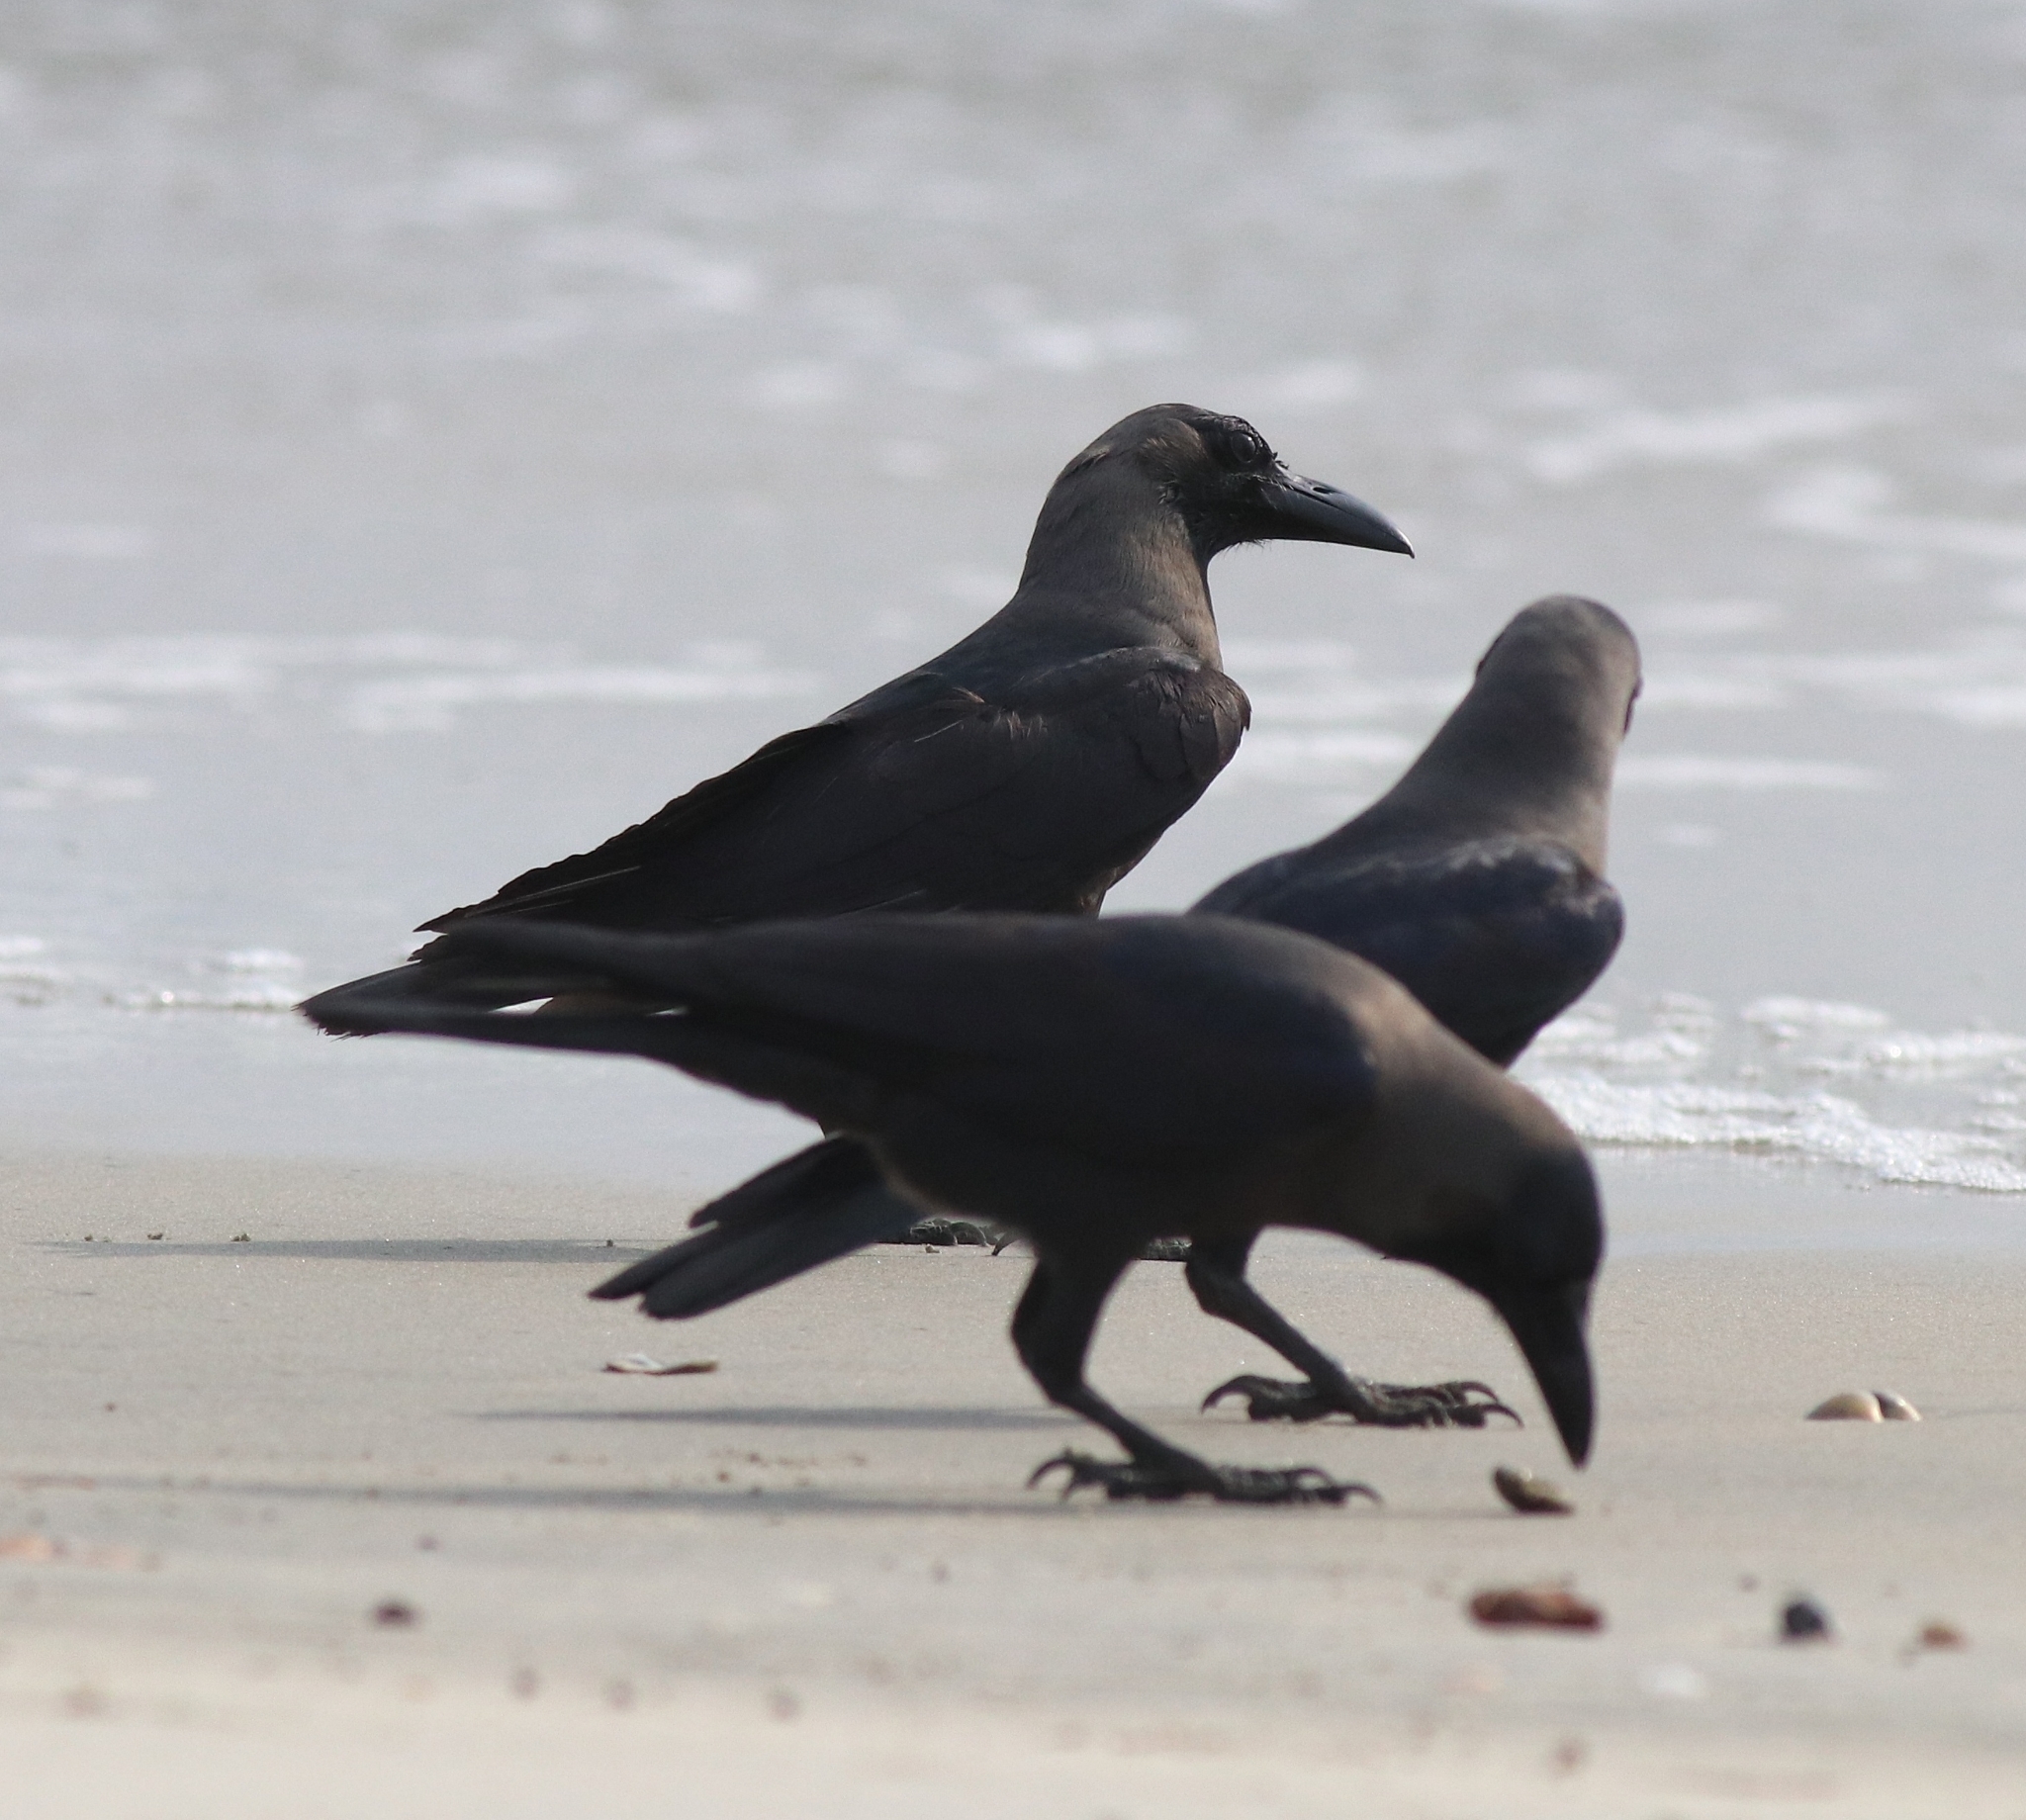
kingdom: Animalia
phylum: Chordata
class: Aves
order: Passeriformes
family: Corvidae
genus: Corvus
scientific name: Corvus splendens
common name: House crow
